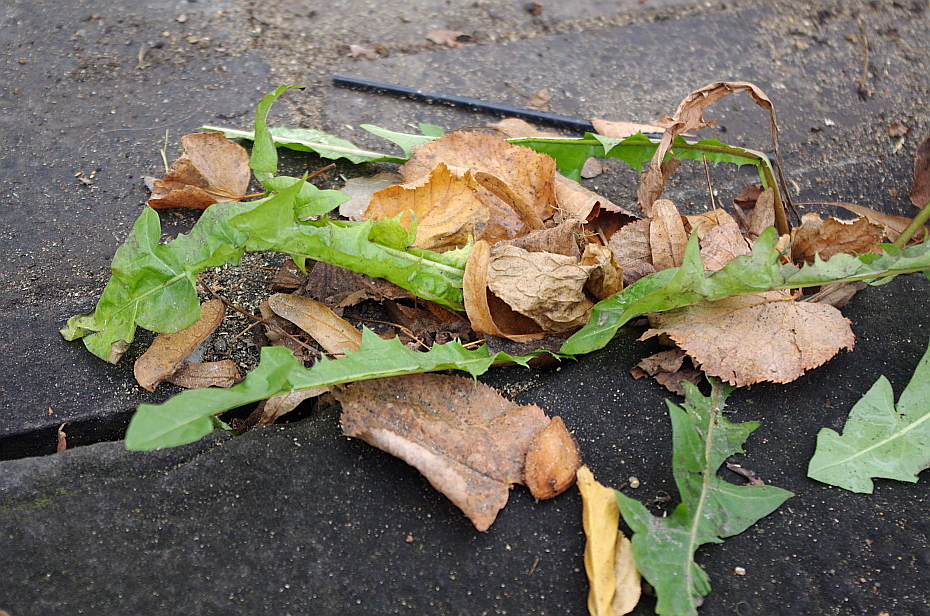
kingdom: Plantae
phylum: Tracheophyta
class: Magnoliopsida
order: Asterales
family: Asteraceae
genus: Taraxacum
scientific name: Taraxacum officinale
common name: Common dandelion
